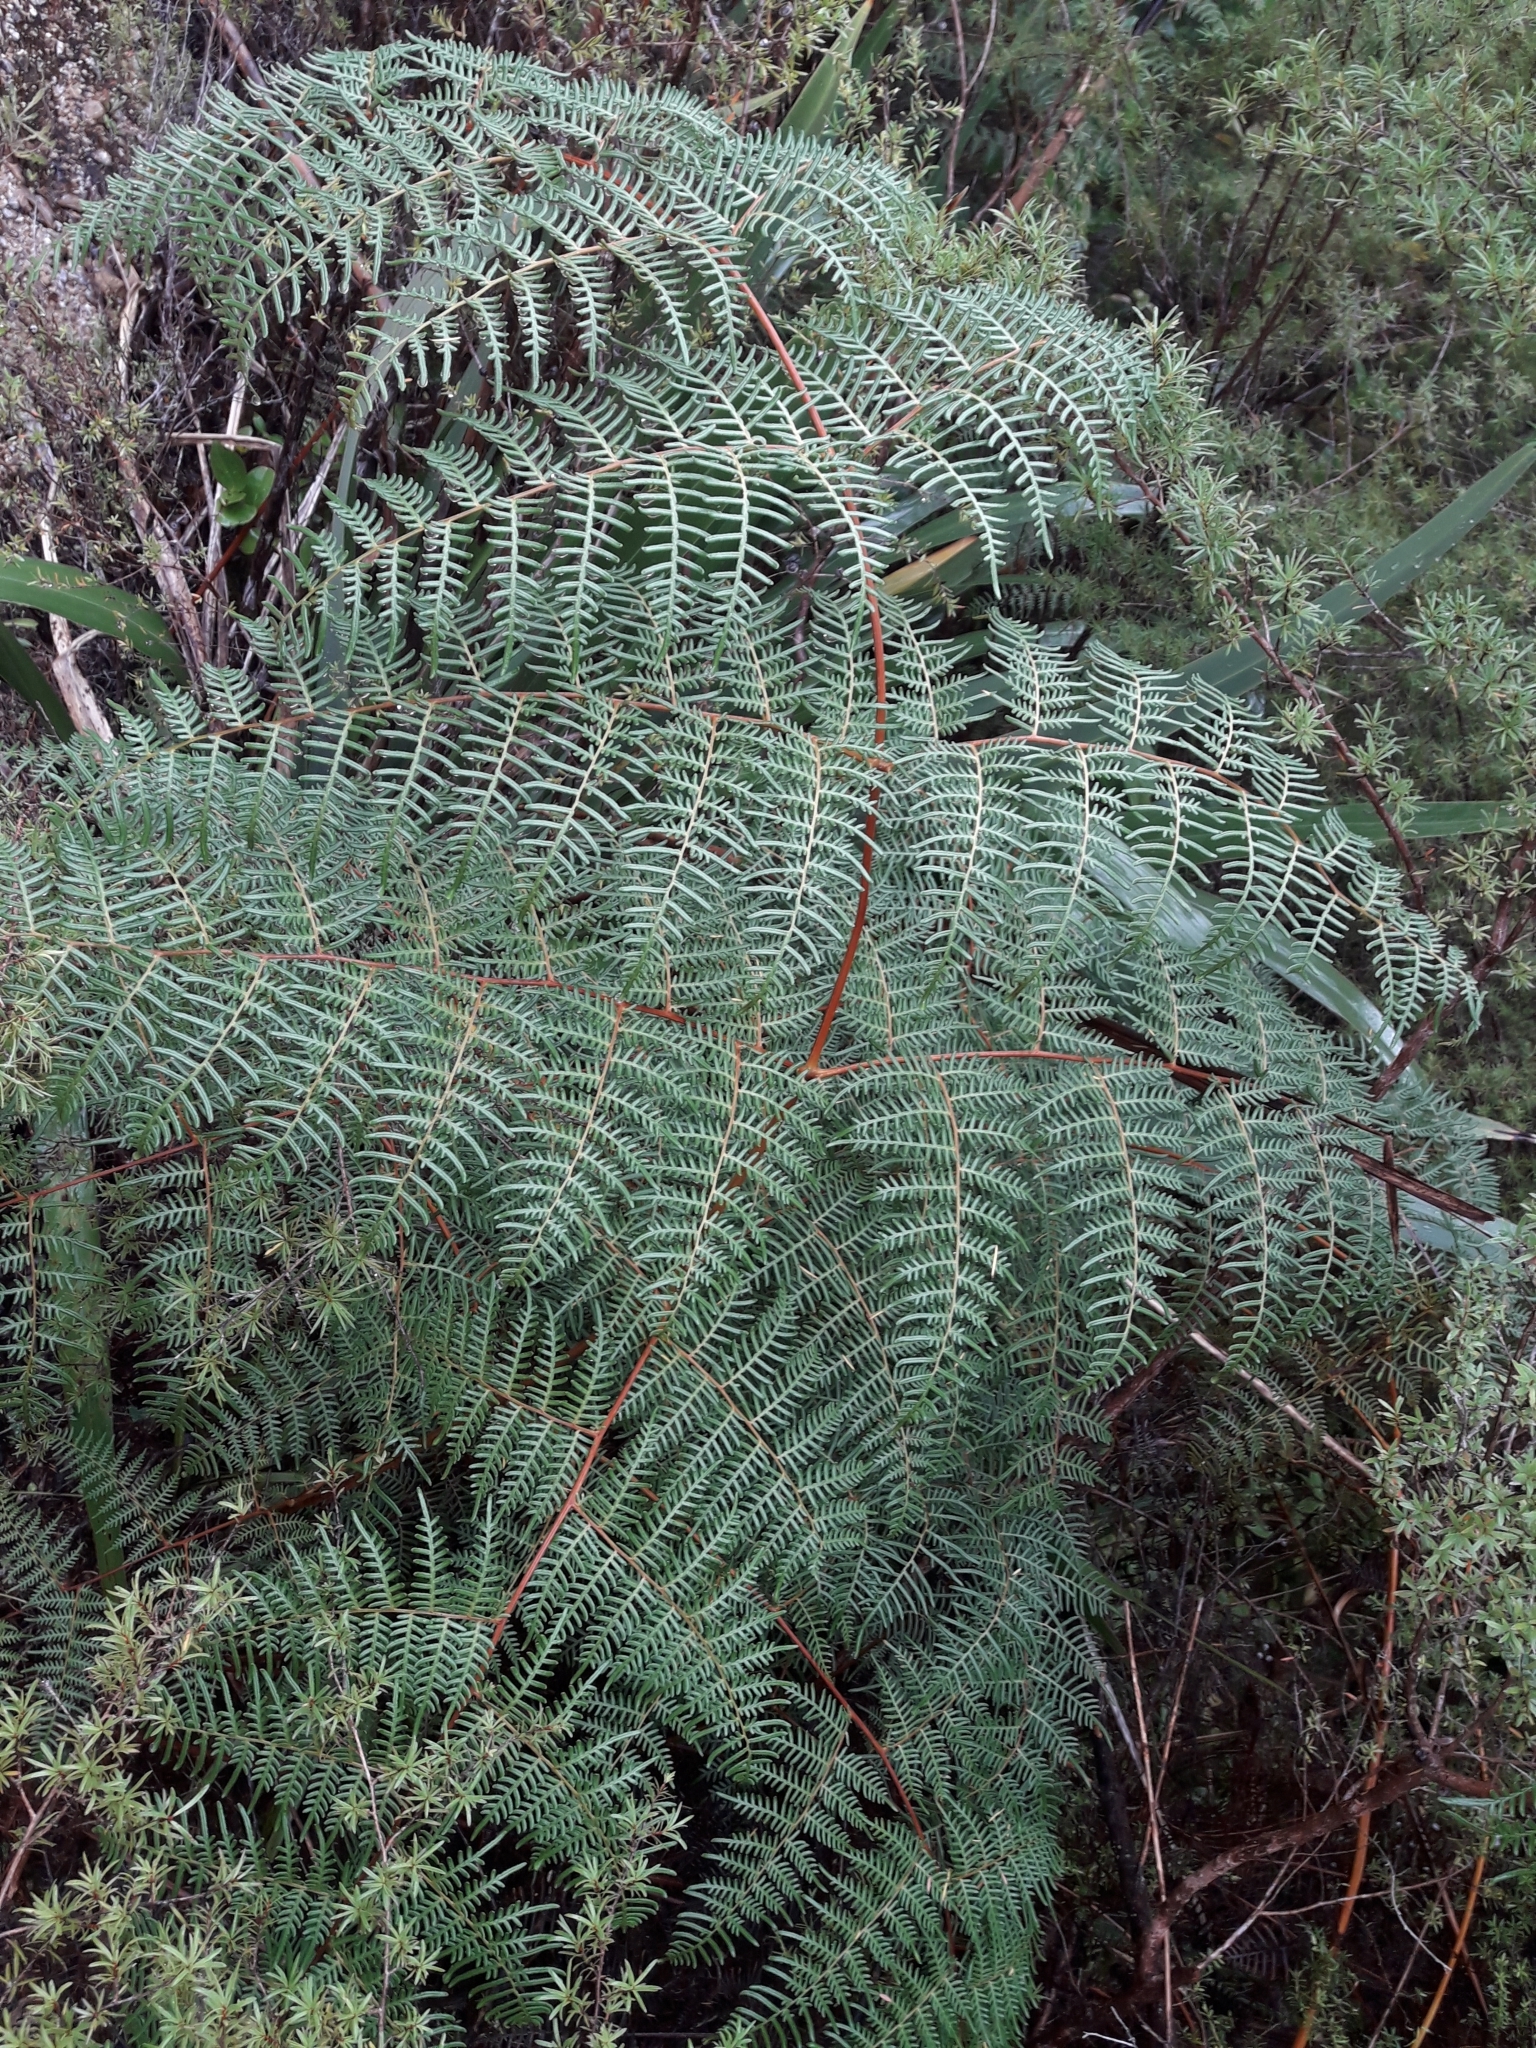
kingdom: Plantae
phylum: Tracheophyta
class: Polypodiopsida
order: Polypodiales
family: Dennstaedtiaceae
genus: Pteridium
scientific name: Pteridium esculentum
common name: Bracken fern
